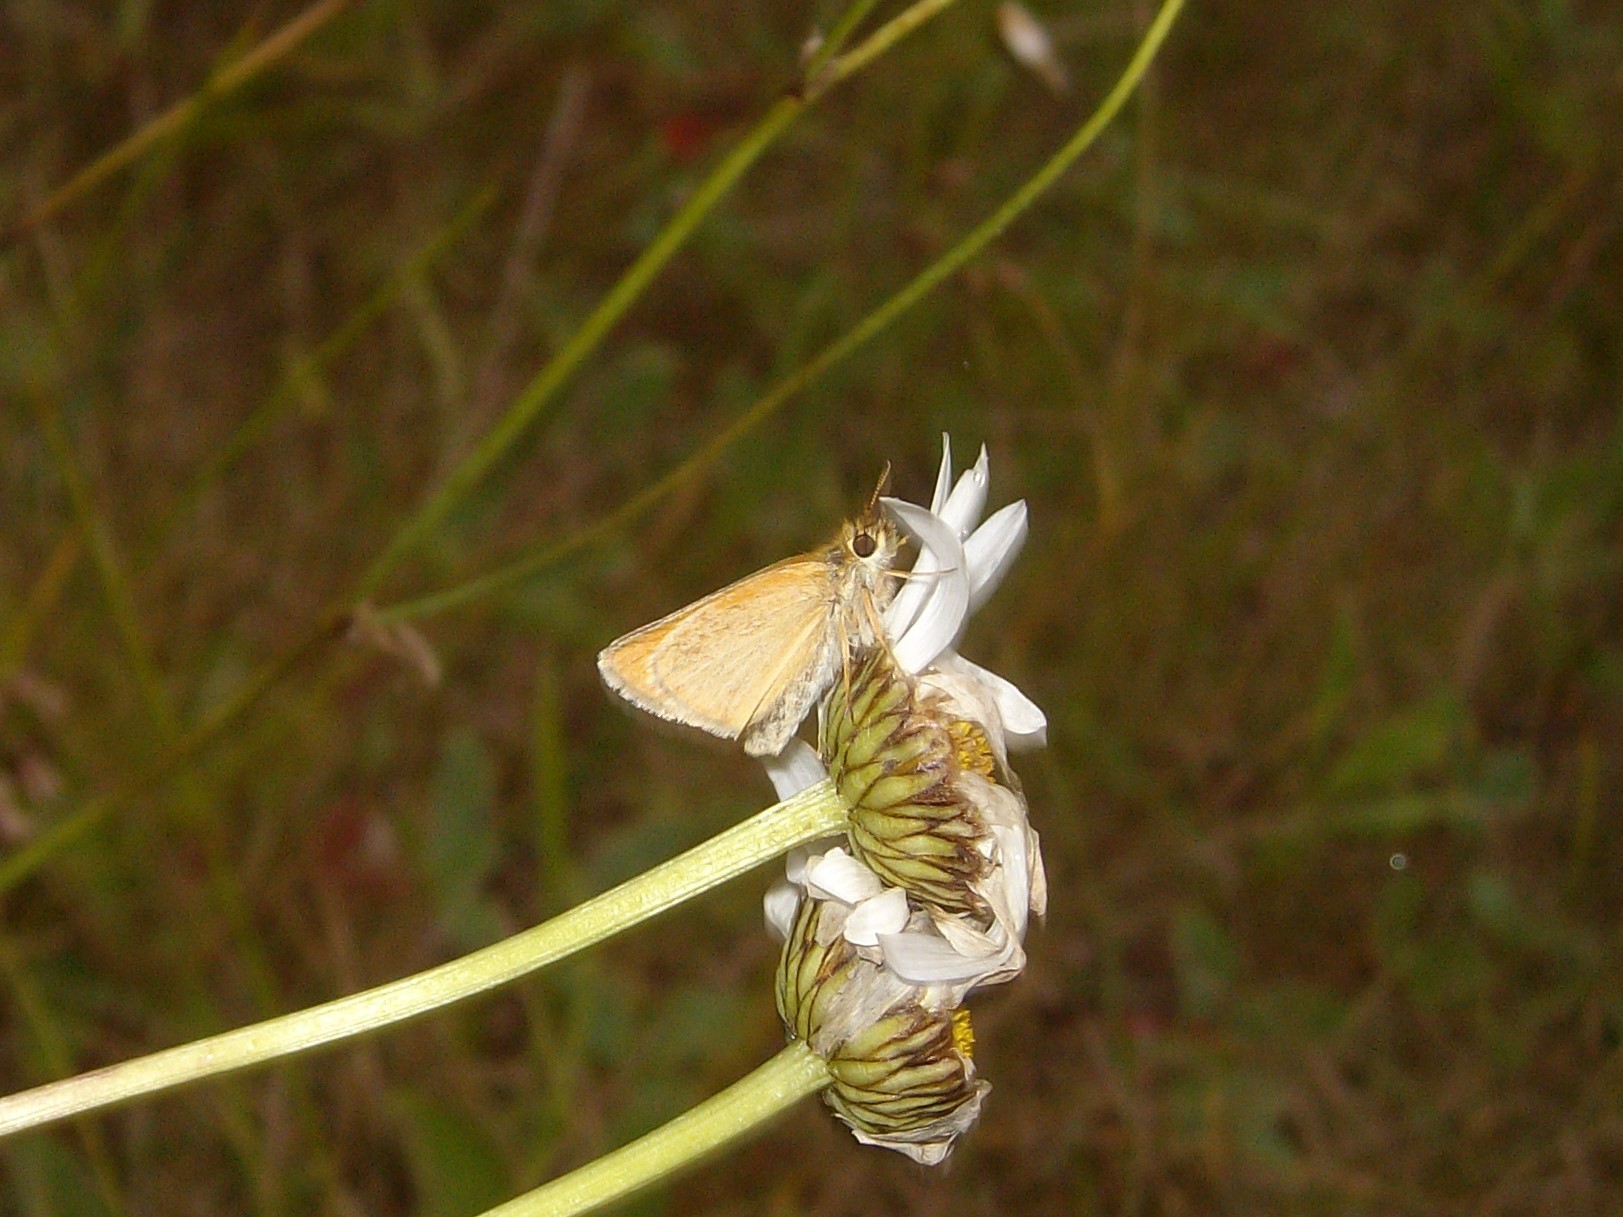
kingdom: Animalia
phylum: Arthropoda
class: Insecta
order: Lepidoptera
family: Hesperiidae
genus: Thymelicus
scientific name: Thymelicus lineola
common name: Essex skipper
